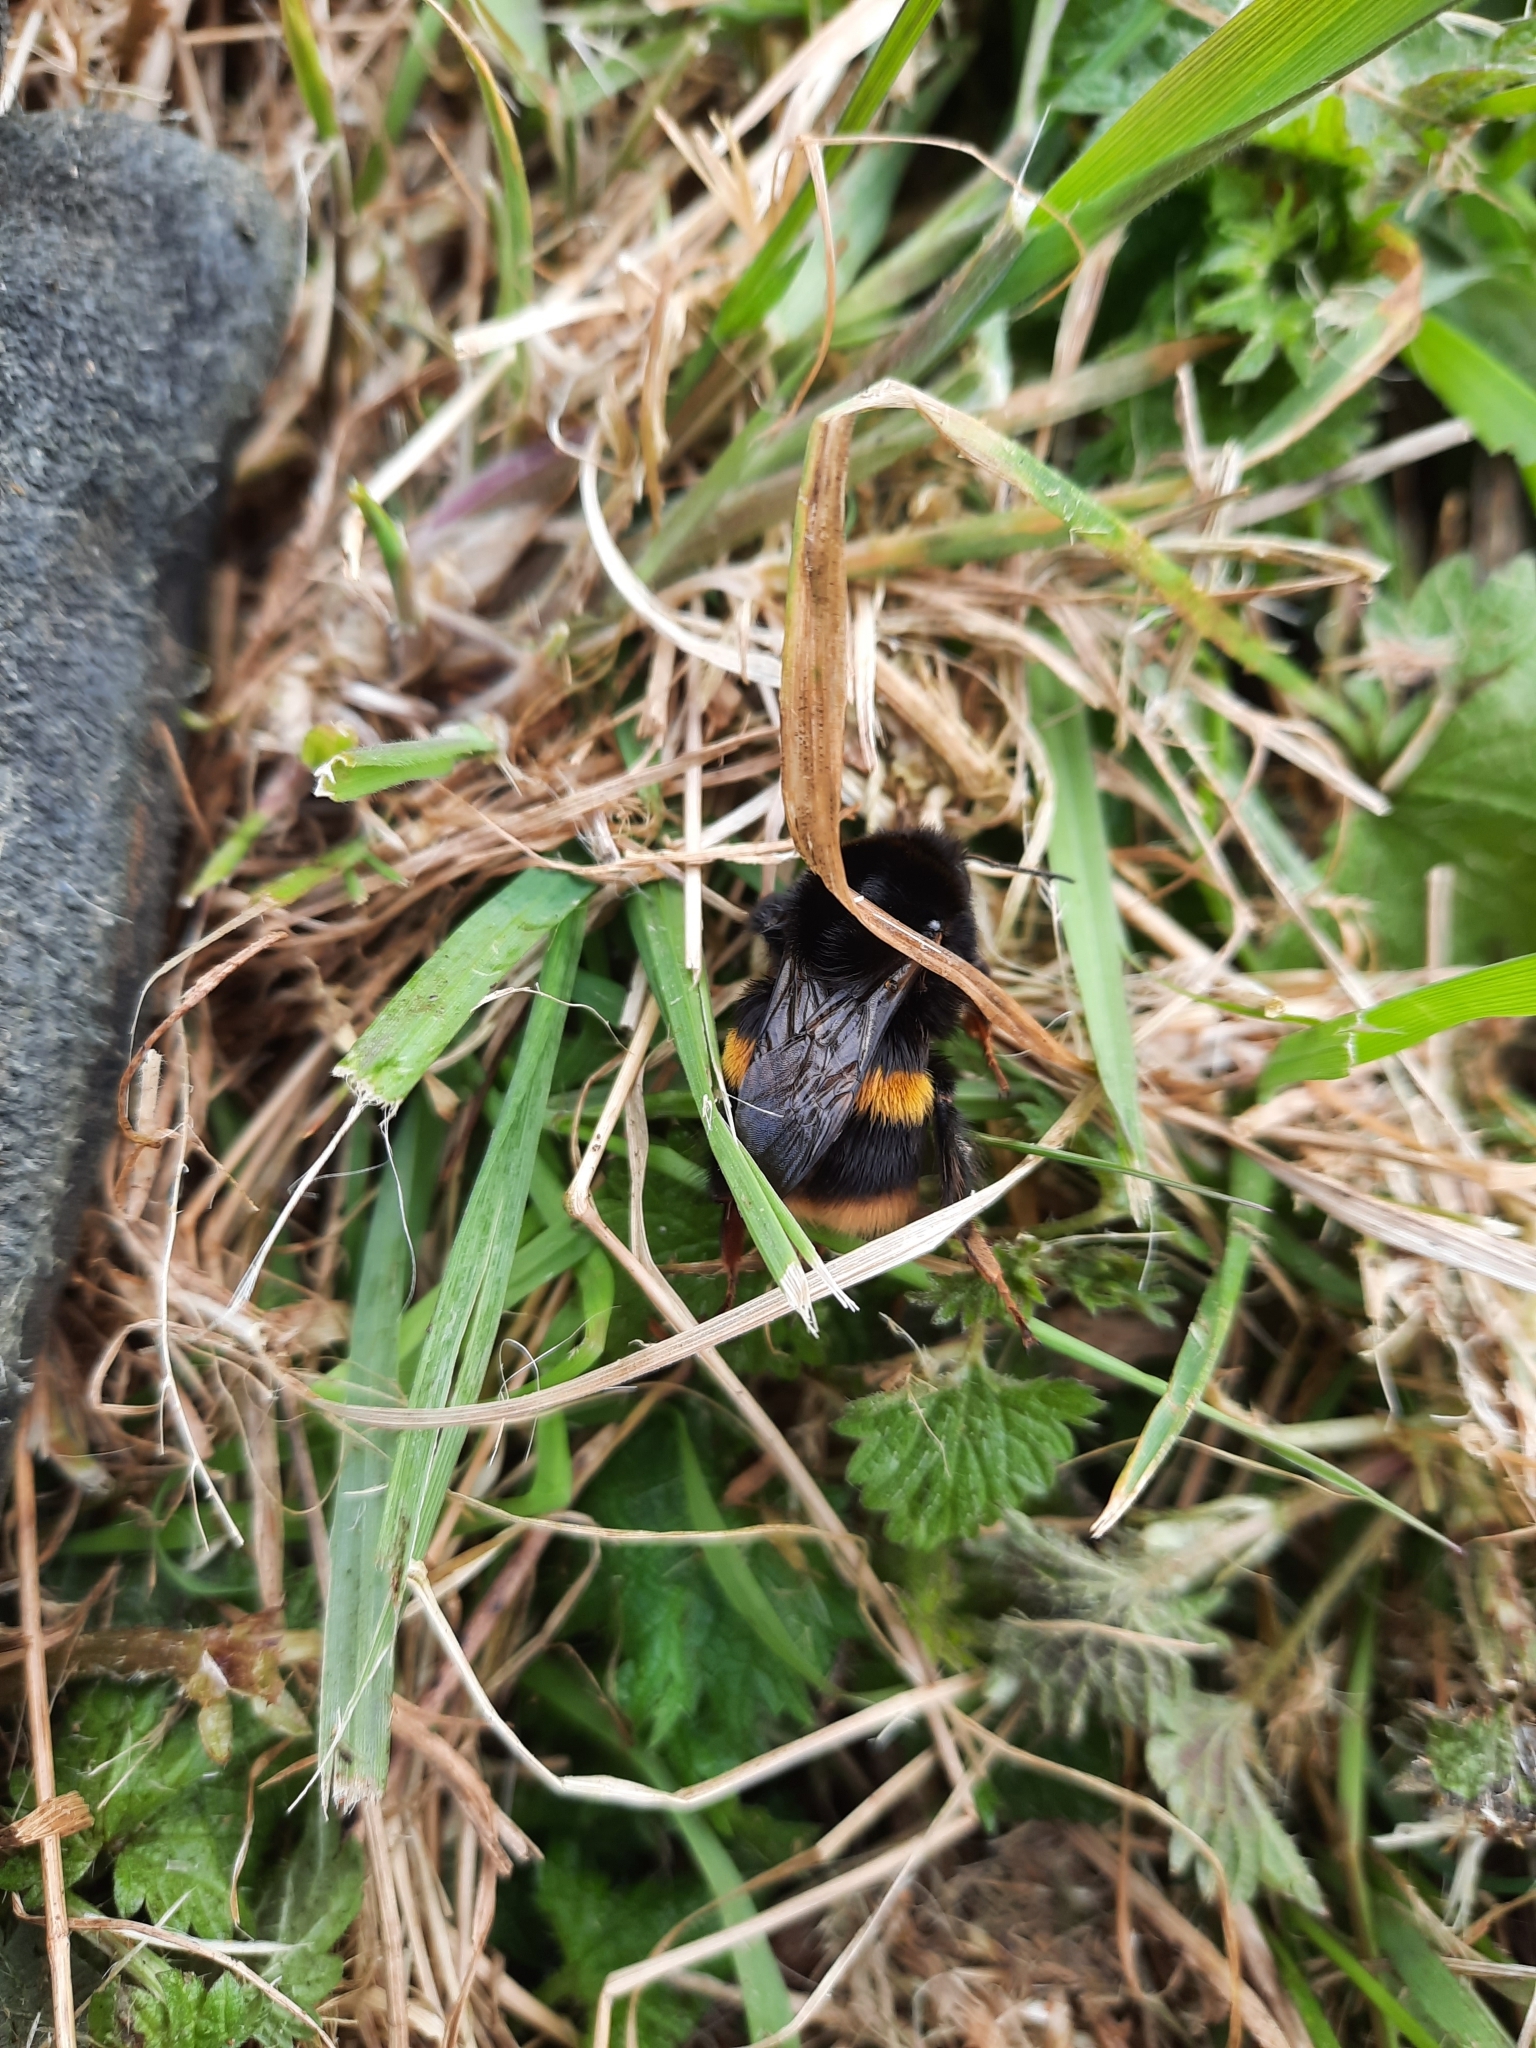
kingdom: Animalia
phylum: Arthropoda
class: Insecta
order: Hymenoptera
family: Apidae
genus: Bombus
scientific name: Bombus terrestris
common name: Buff-tailed bumblebee
